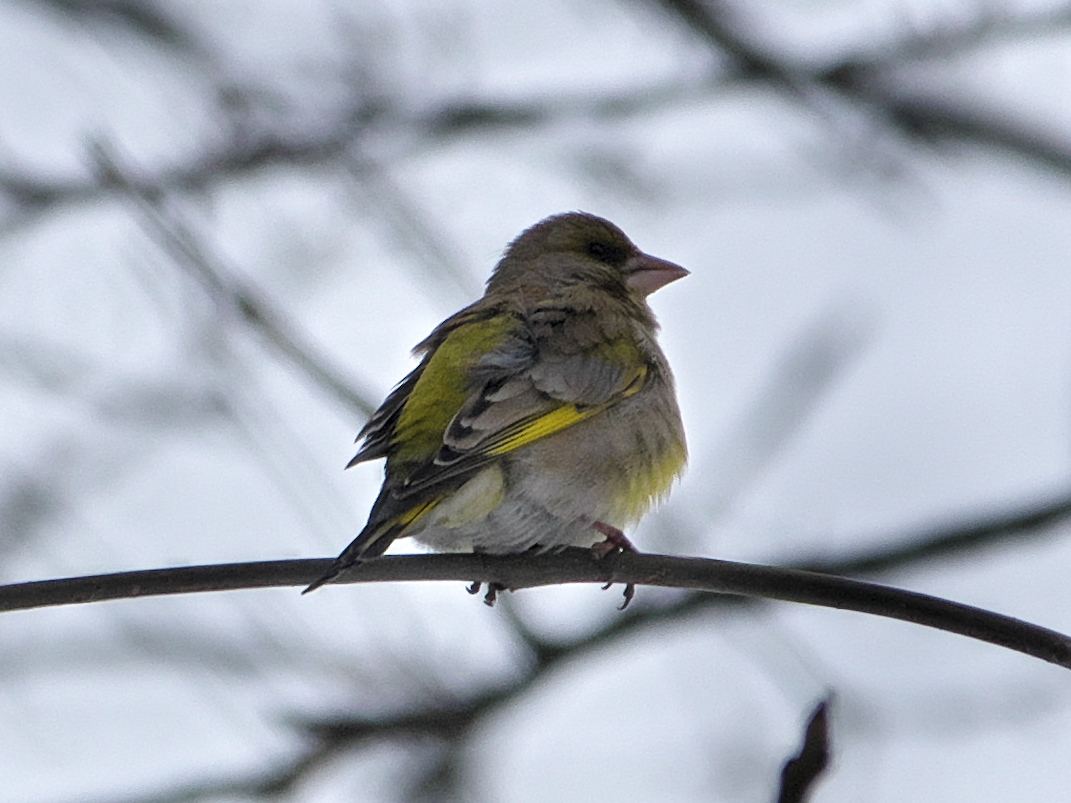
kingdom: Plantae
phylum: Tracheophyta
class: Liliopsida
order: Poales
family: Poaceae
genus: Chloris
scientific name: Chloris chloris
